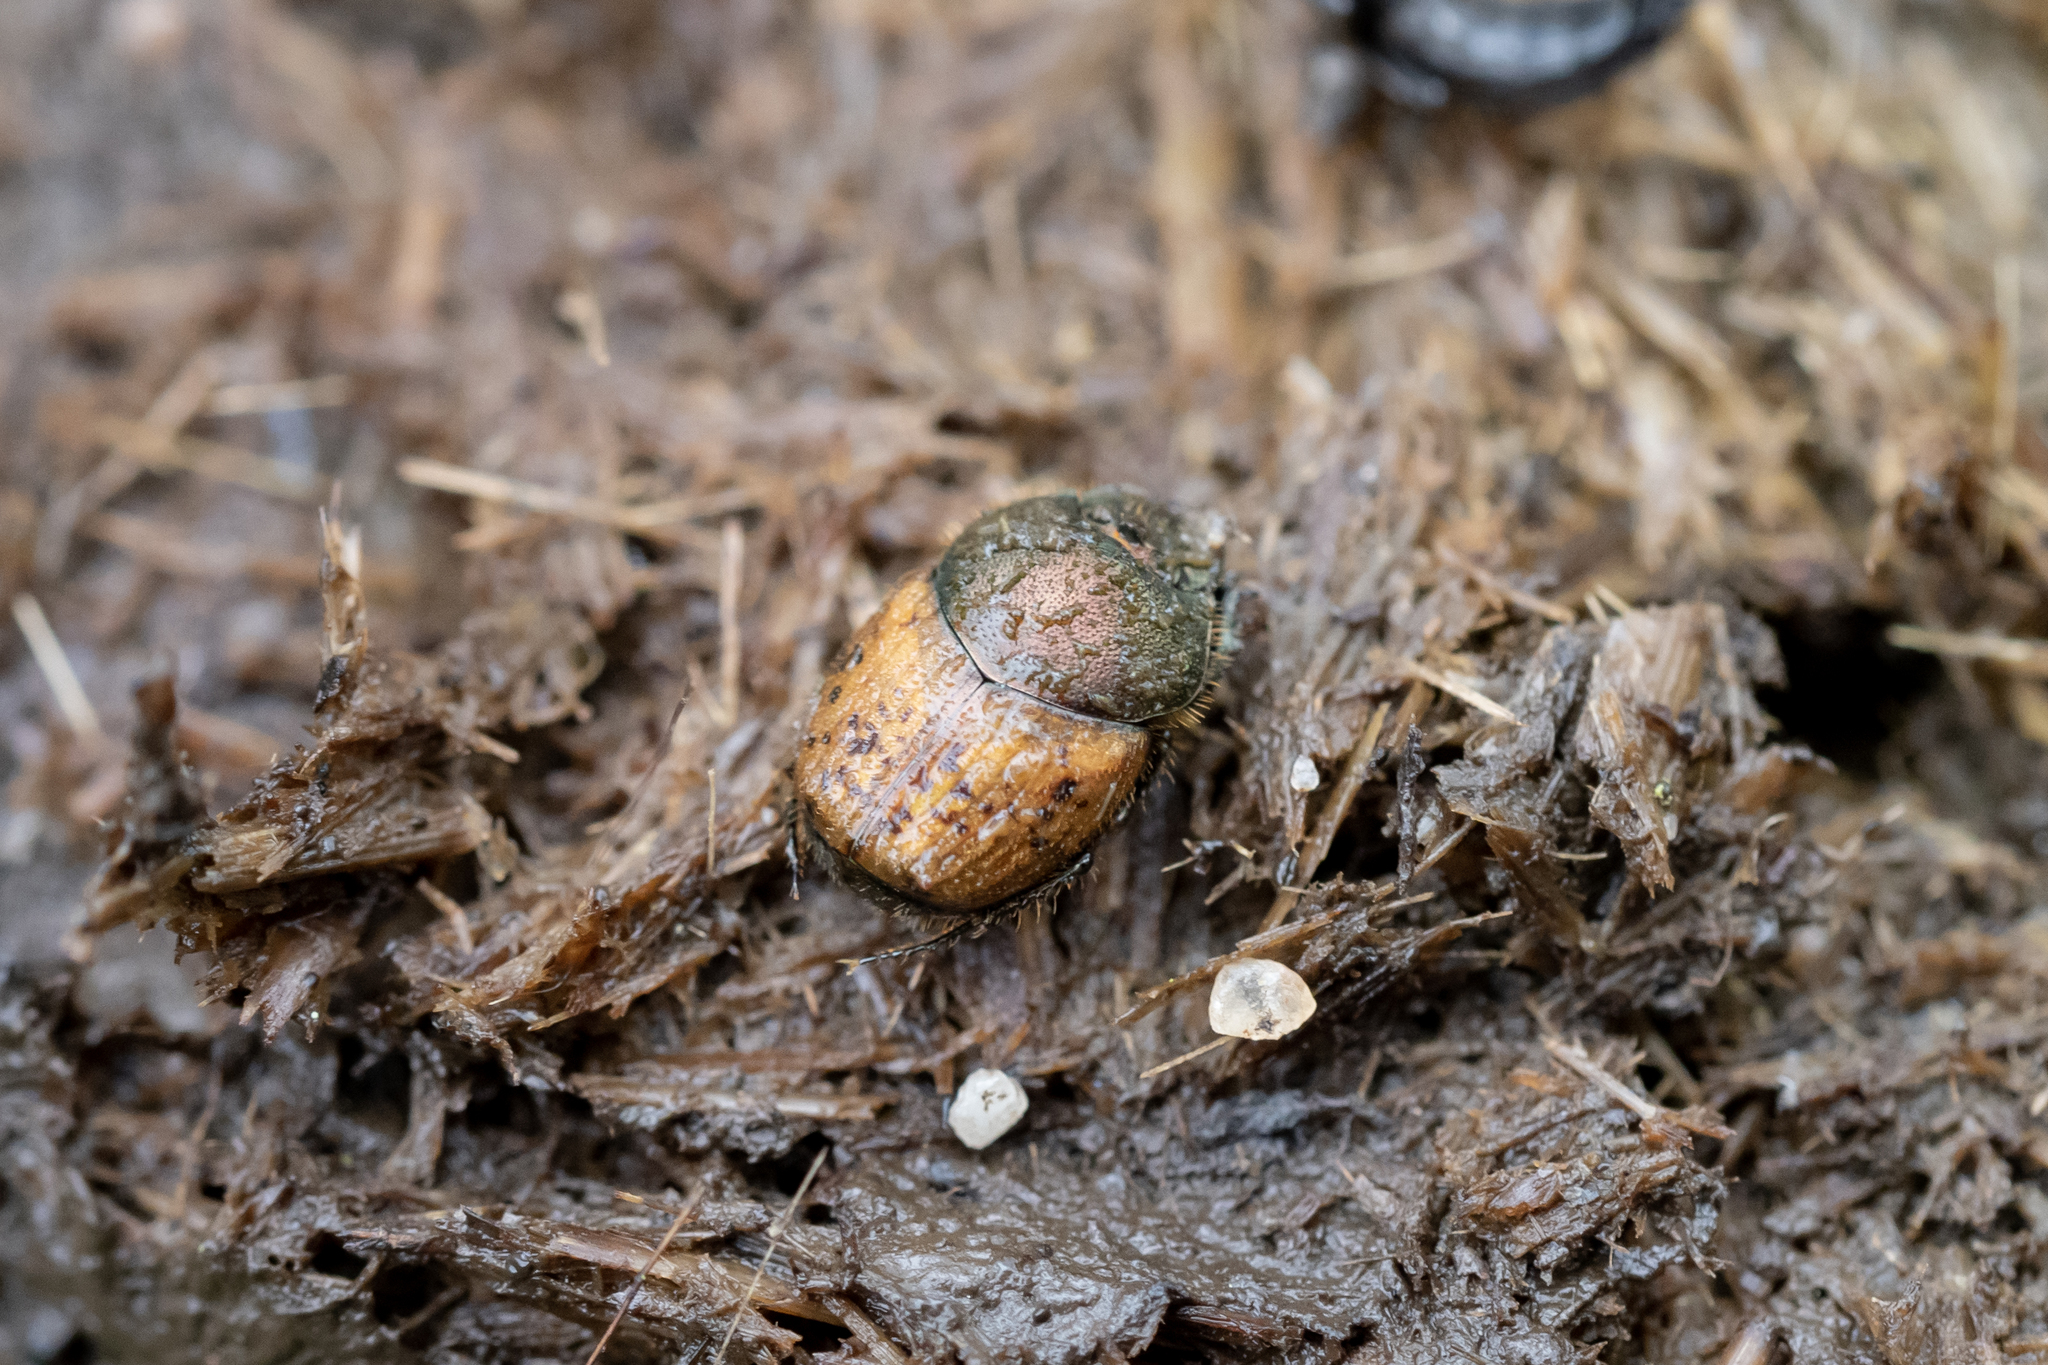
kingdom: Animalia
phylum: Arthropoda
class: Insecta
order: Coleoptera
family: Scarabaeidae
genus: Onthophagus
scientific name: Onthophagus coenobita
